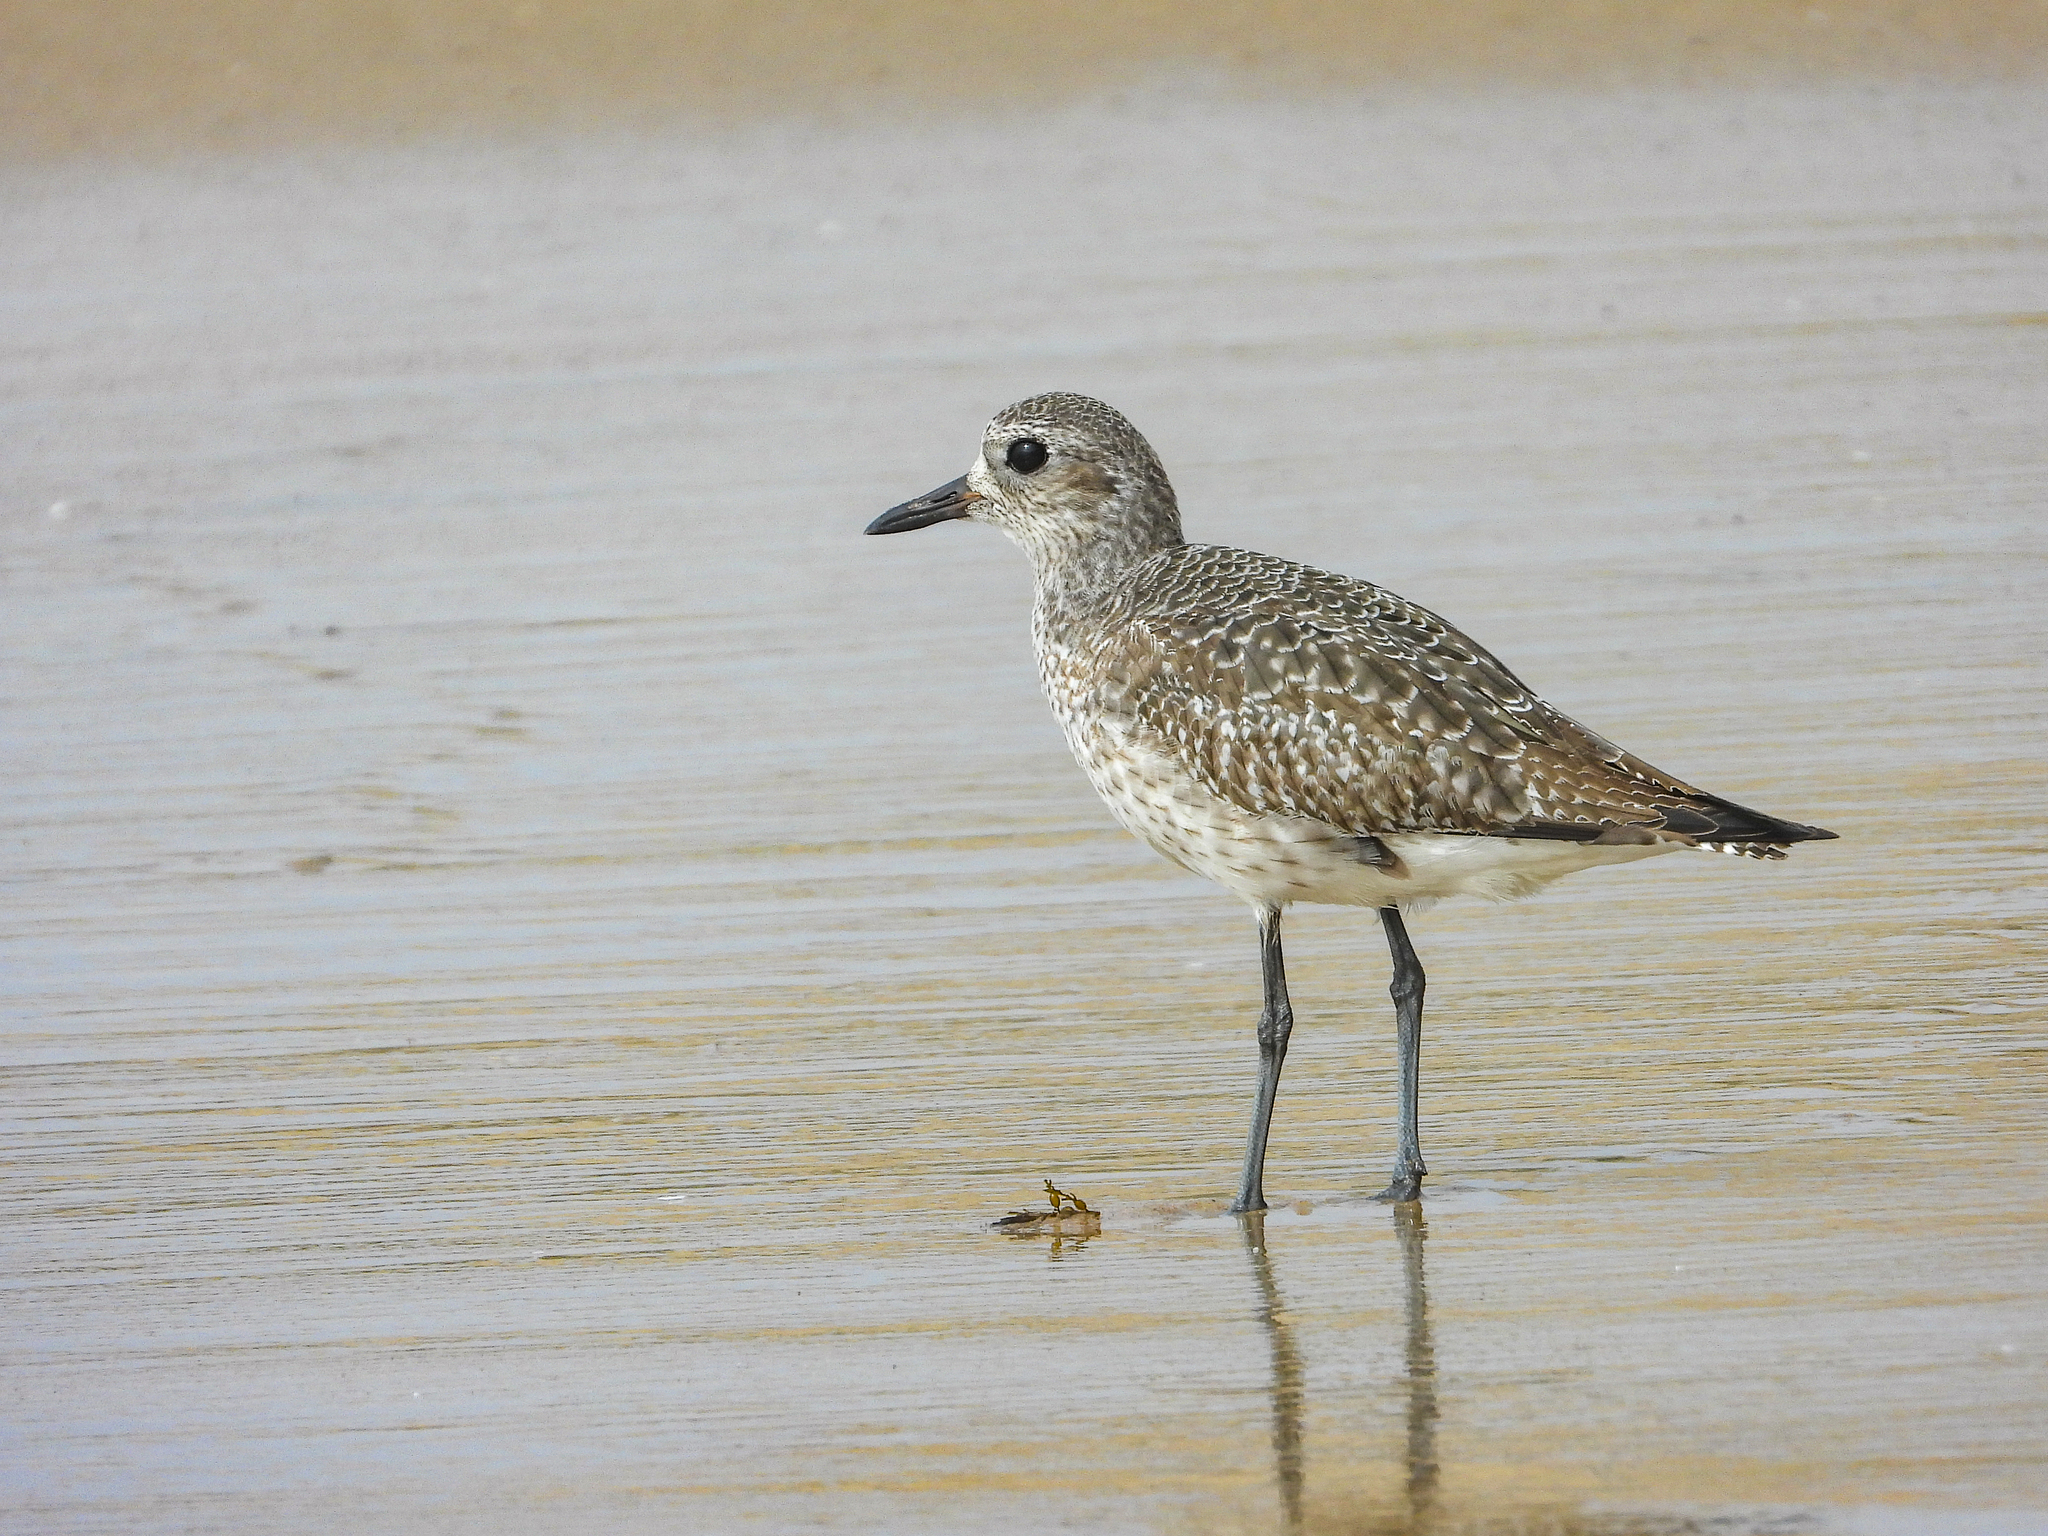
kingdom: Animalia
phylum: Chordata
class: Aves
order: Charadriiformes
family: Charadriidae
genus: Pluvialis
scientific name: Pluvialis squatarola
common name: Grey plover
